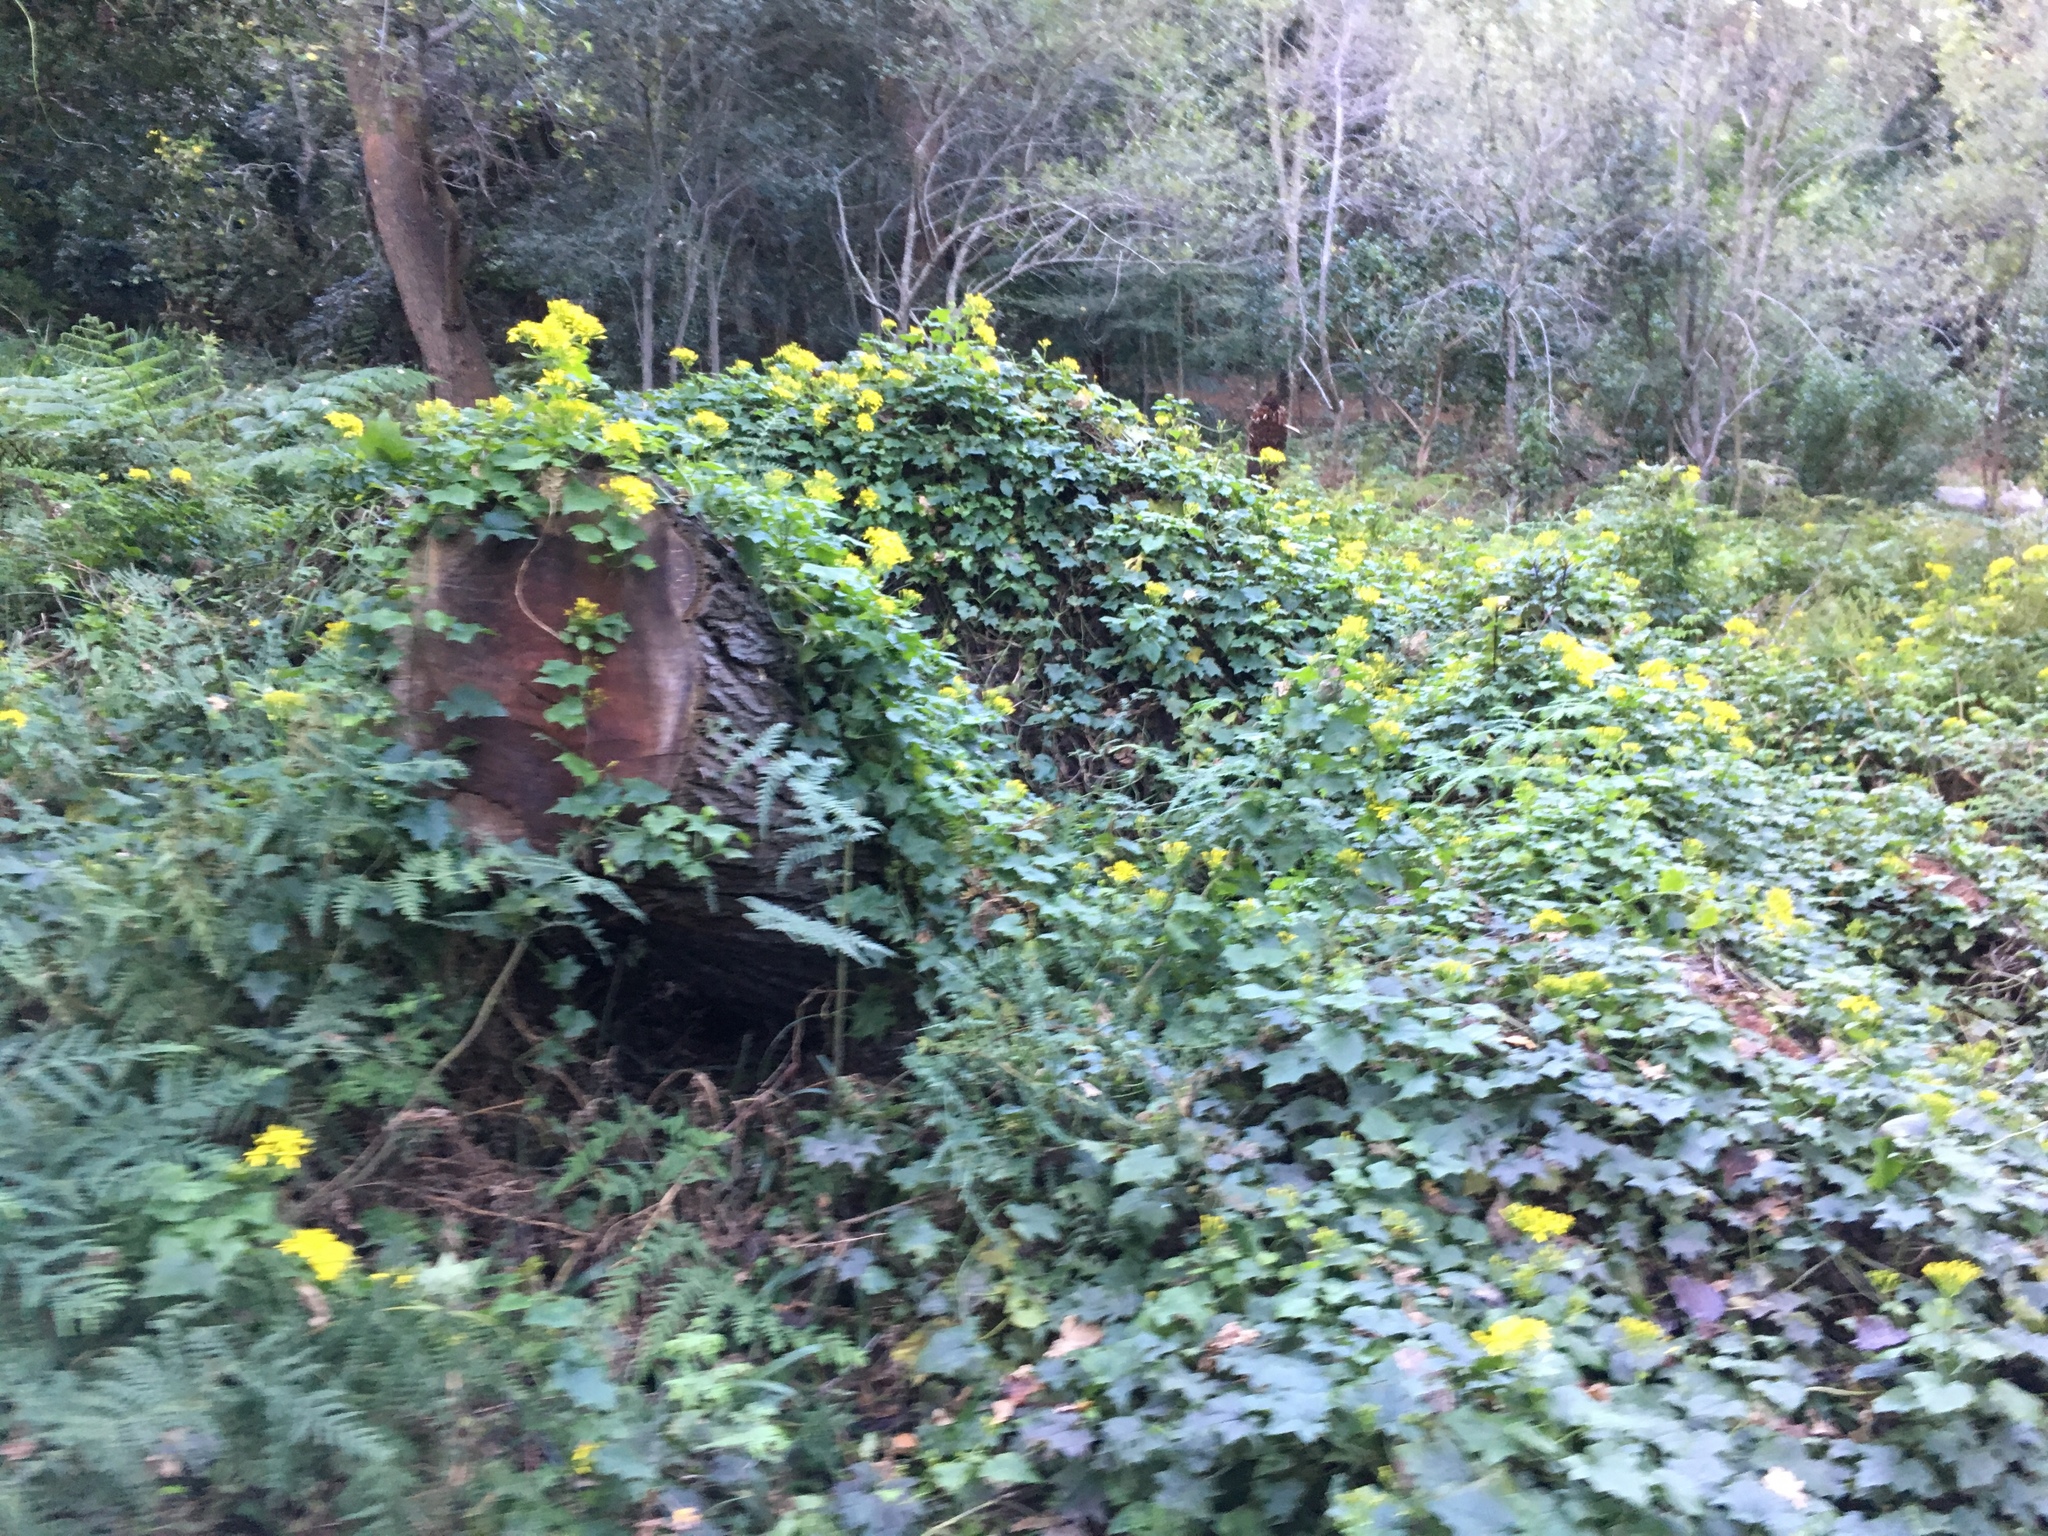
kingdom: Plantae
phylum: Tracheophyta
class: Magnoliopsida
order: Asterales
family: Asteraceae
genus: Senecio
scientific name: Senecio tamoides
